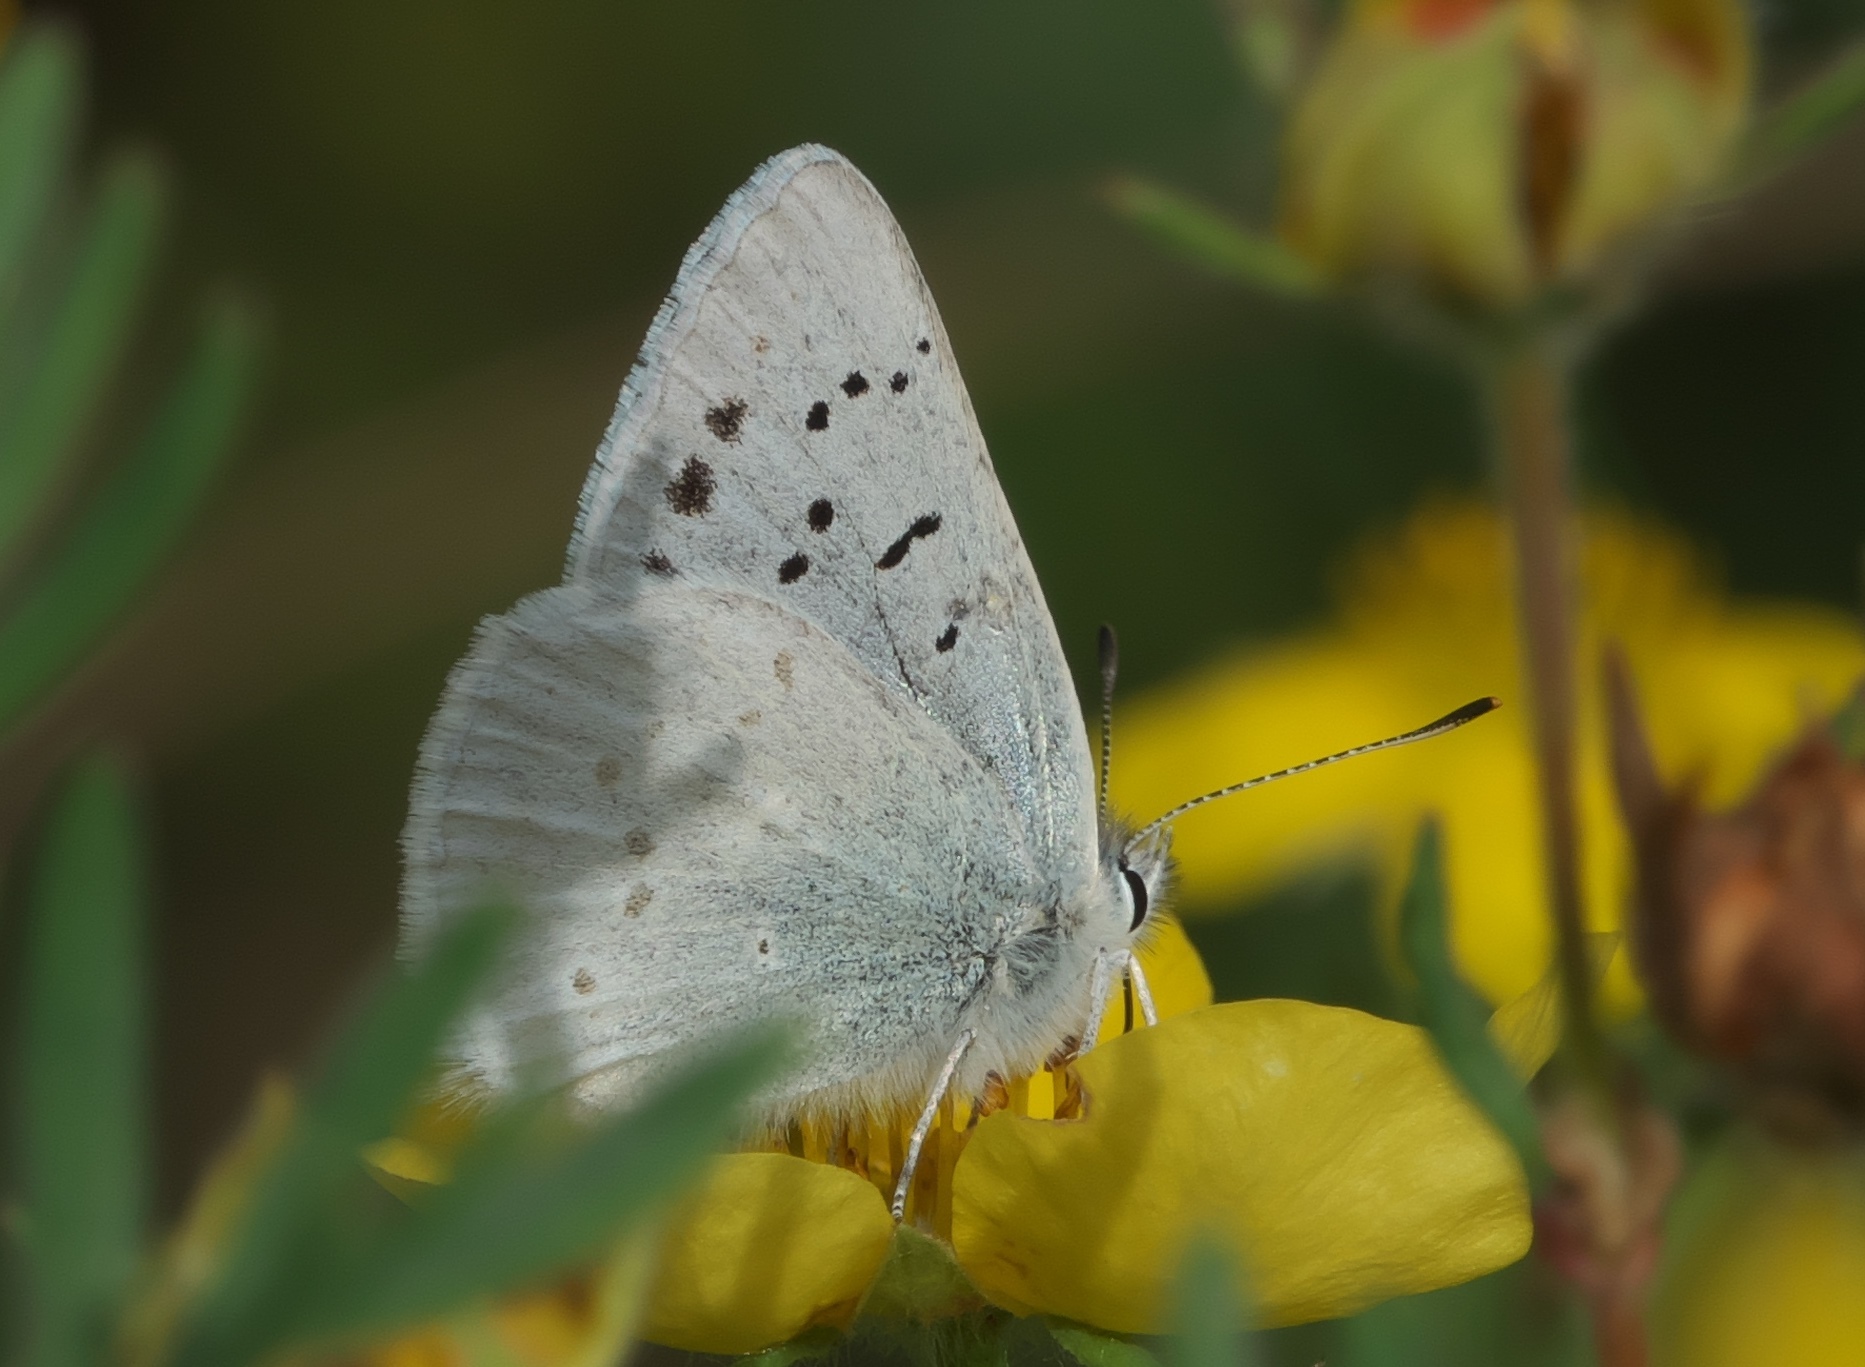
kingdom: Animalia
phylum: Arthropoda
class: Insecta
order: Lepidoptera
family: Lycaenidae
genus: Tharsalea
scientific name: Tharsalea heteronea
